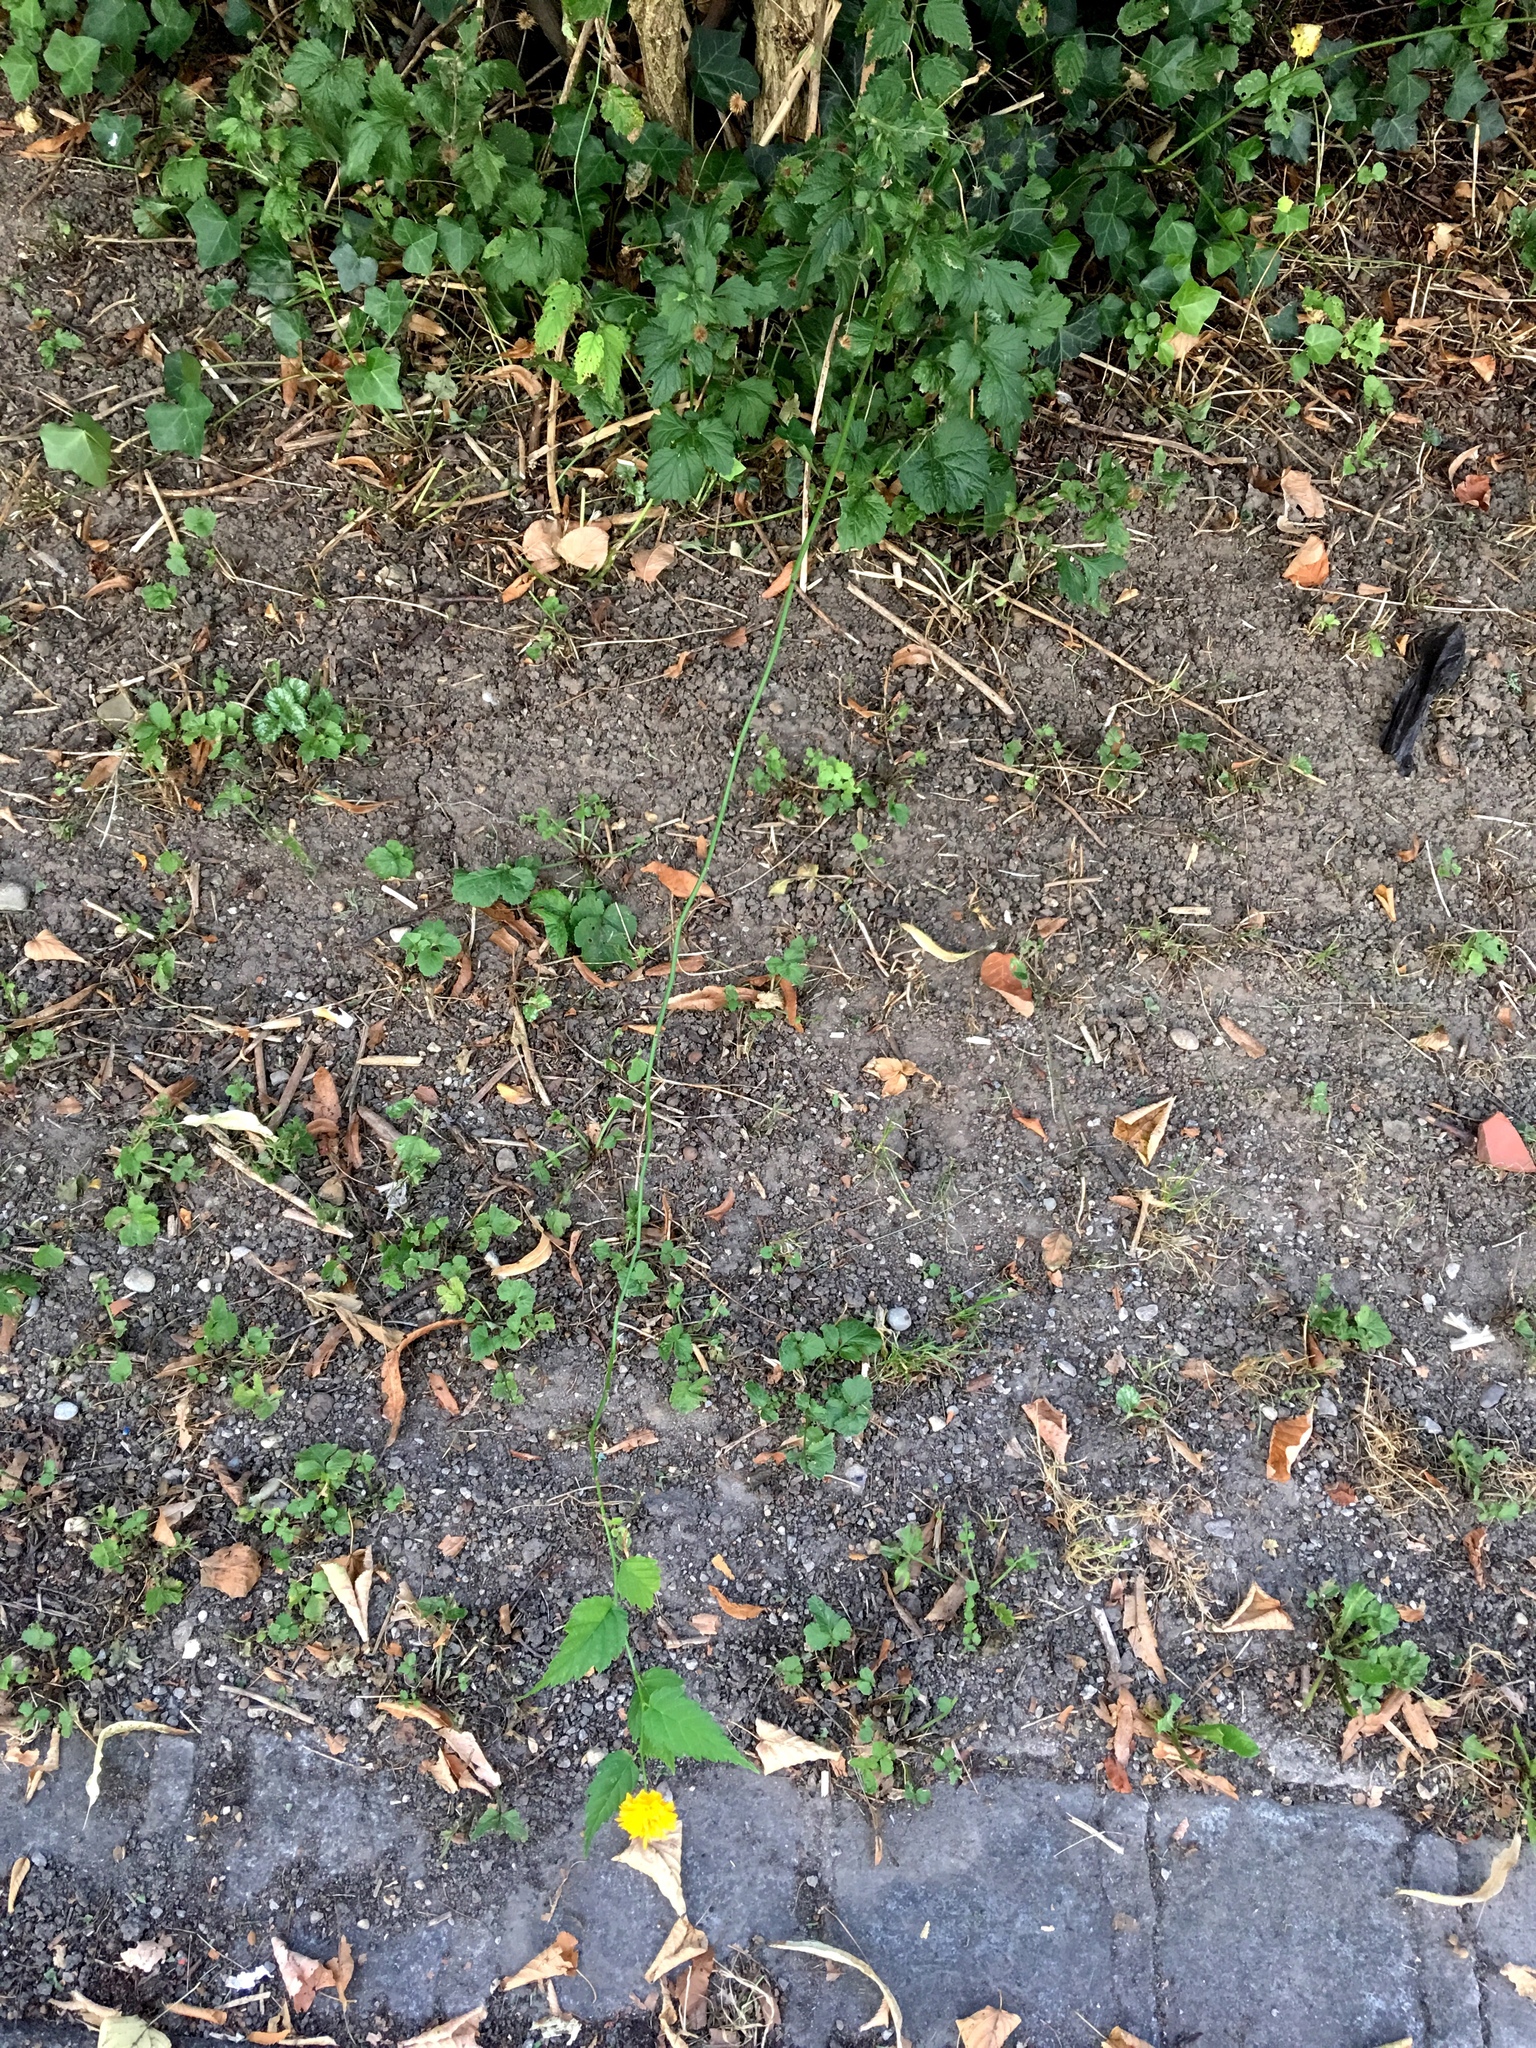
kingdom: Plantae
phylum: Tracheophyta
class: Magnoliopsida
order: Rosales
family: Rosaceae
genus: Kerria
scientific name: Kerria japonica
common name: Japanese kerria
